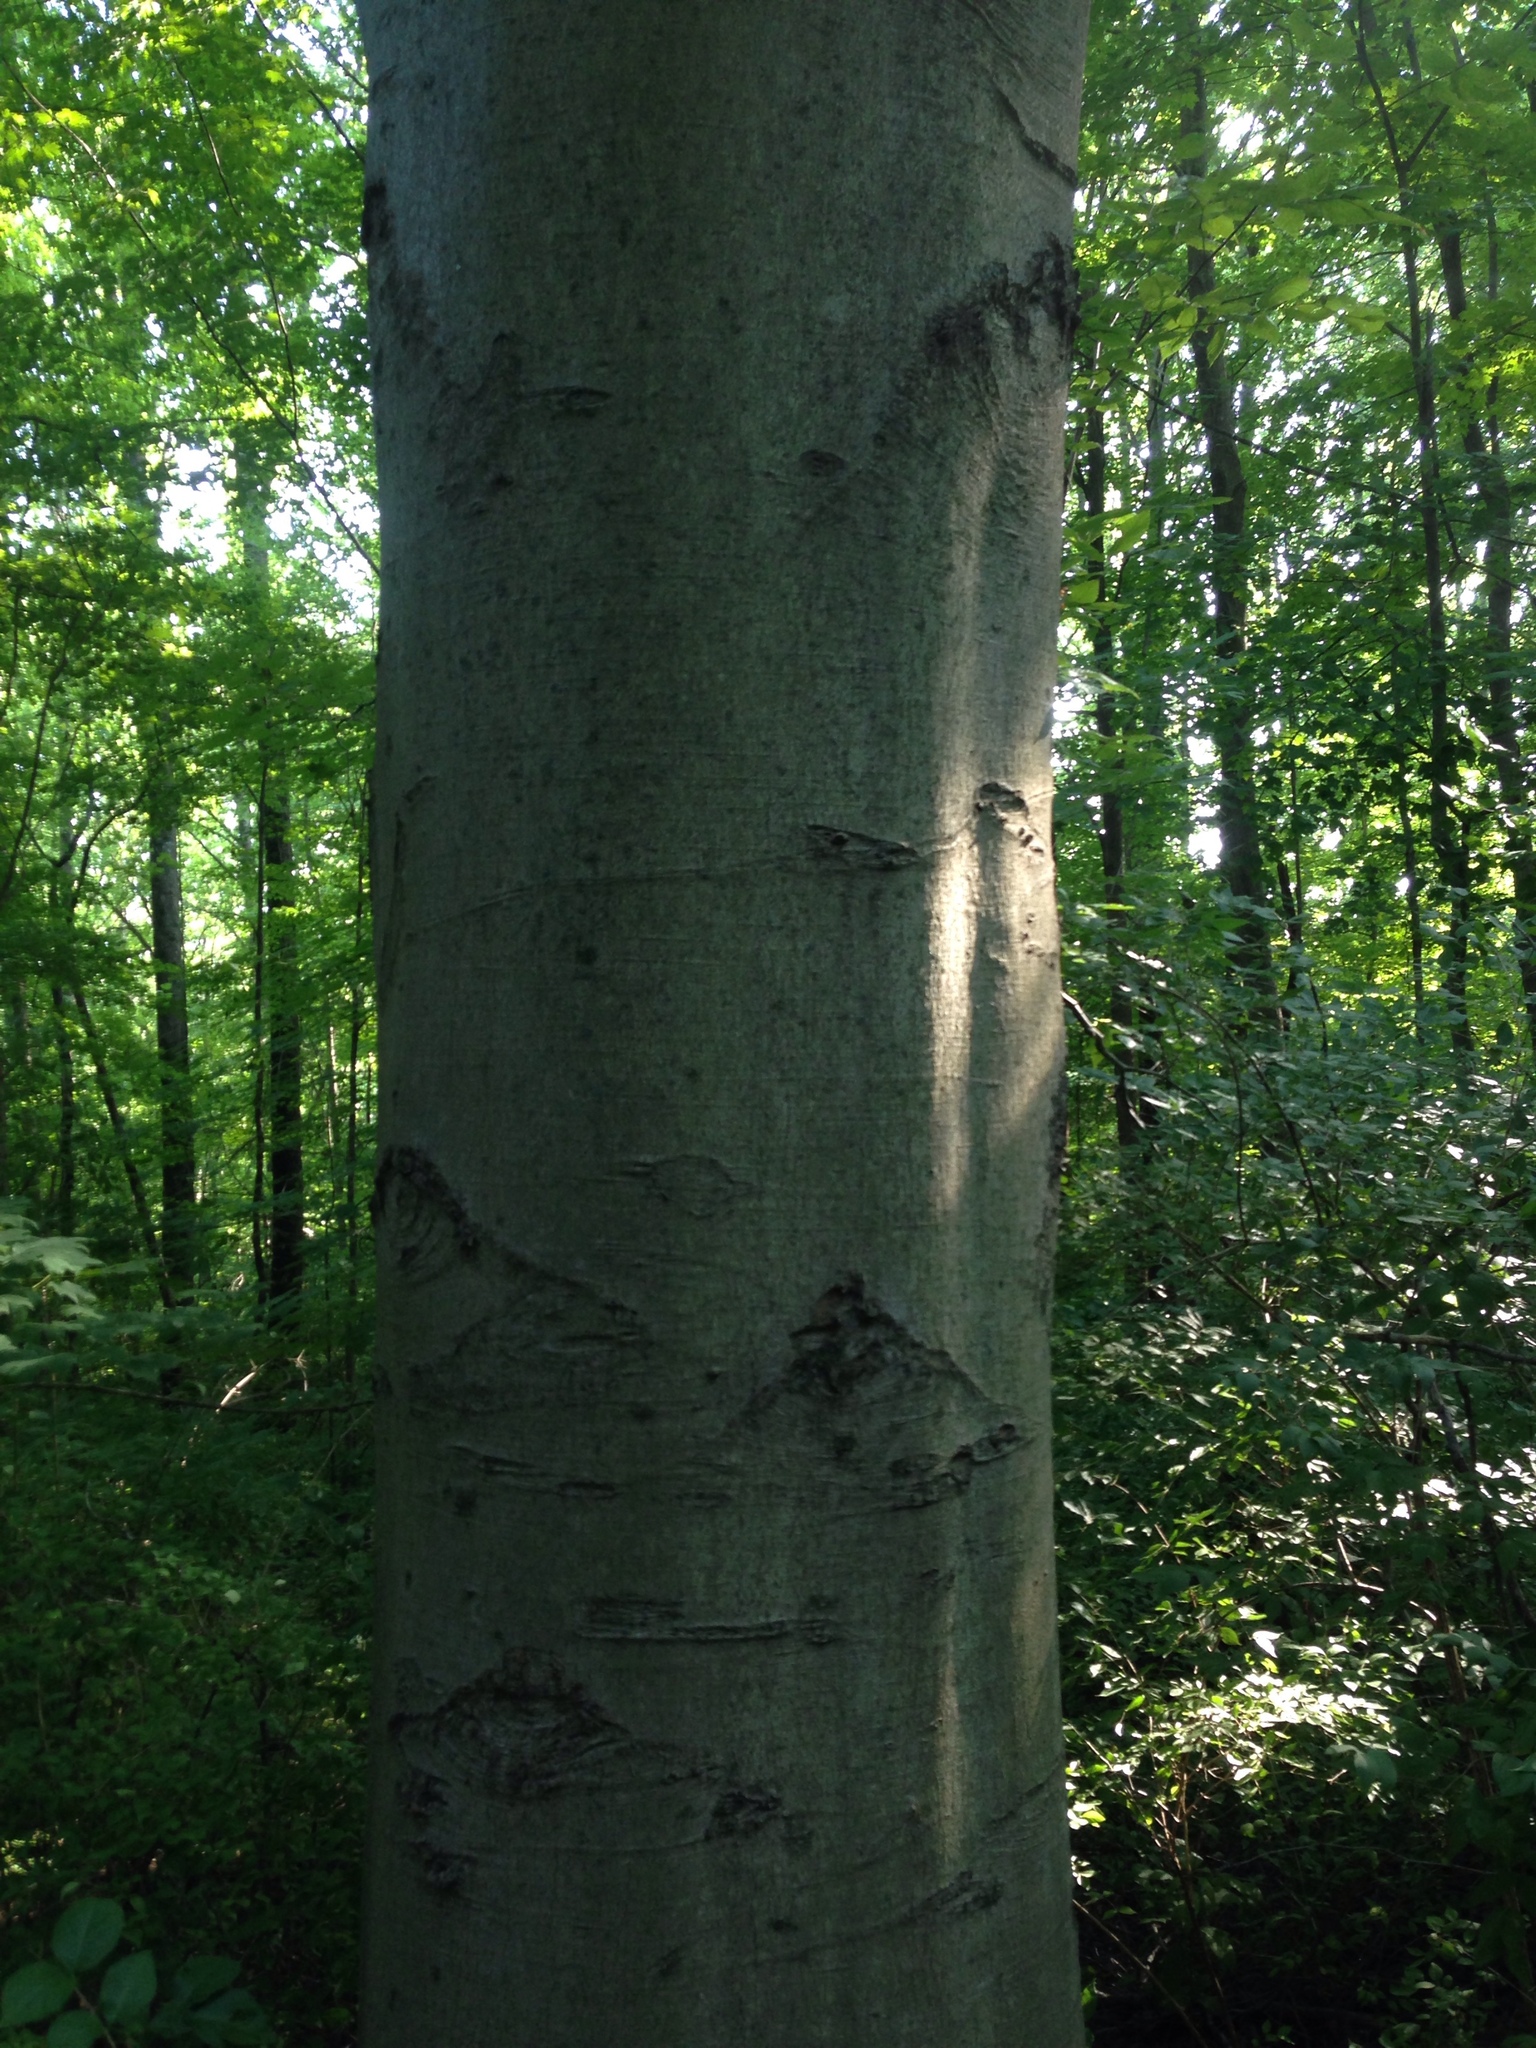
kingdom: Plantae
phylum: Tracheophyta
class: Magnoliopsida
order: Fagales
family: Fagaceae
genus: Fagus
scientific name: Fagus grandifolia
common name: American beech
